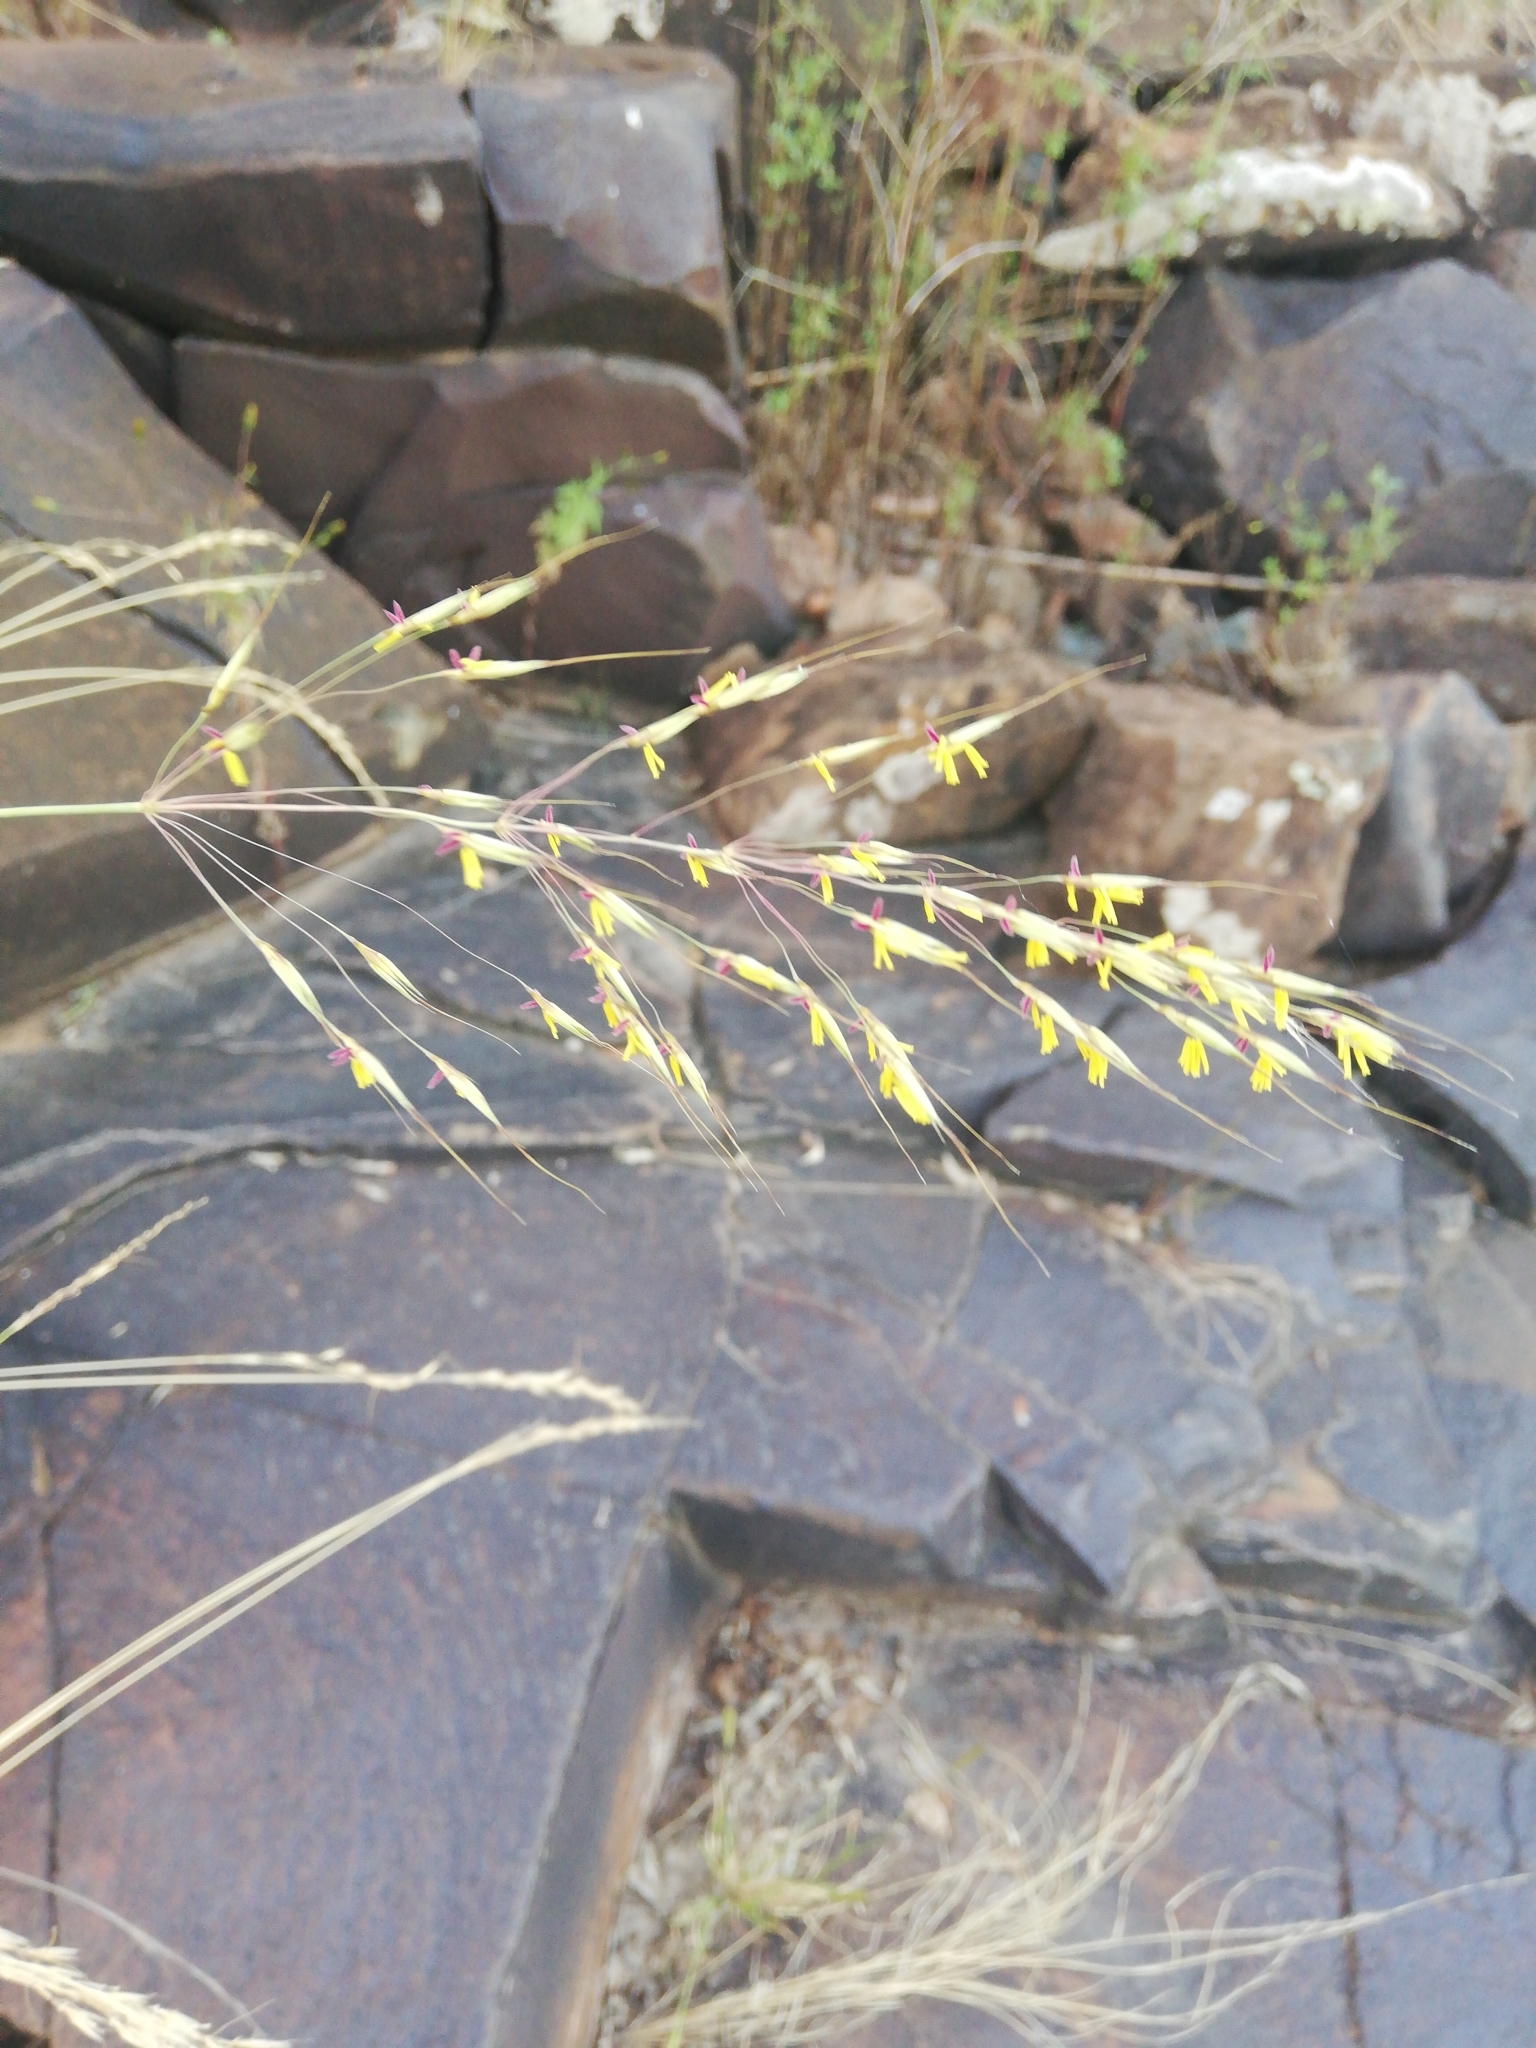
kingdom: Plantae
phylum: Tracheophyta
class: Liliopsida
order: Poales
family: Poaceae
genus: Chrysopogon
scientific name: Chrysopogon serrulatus
